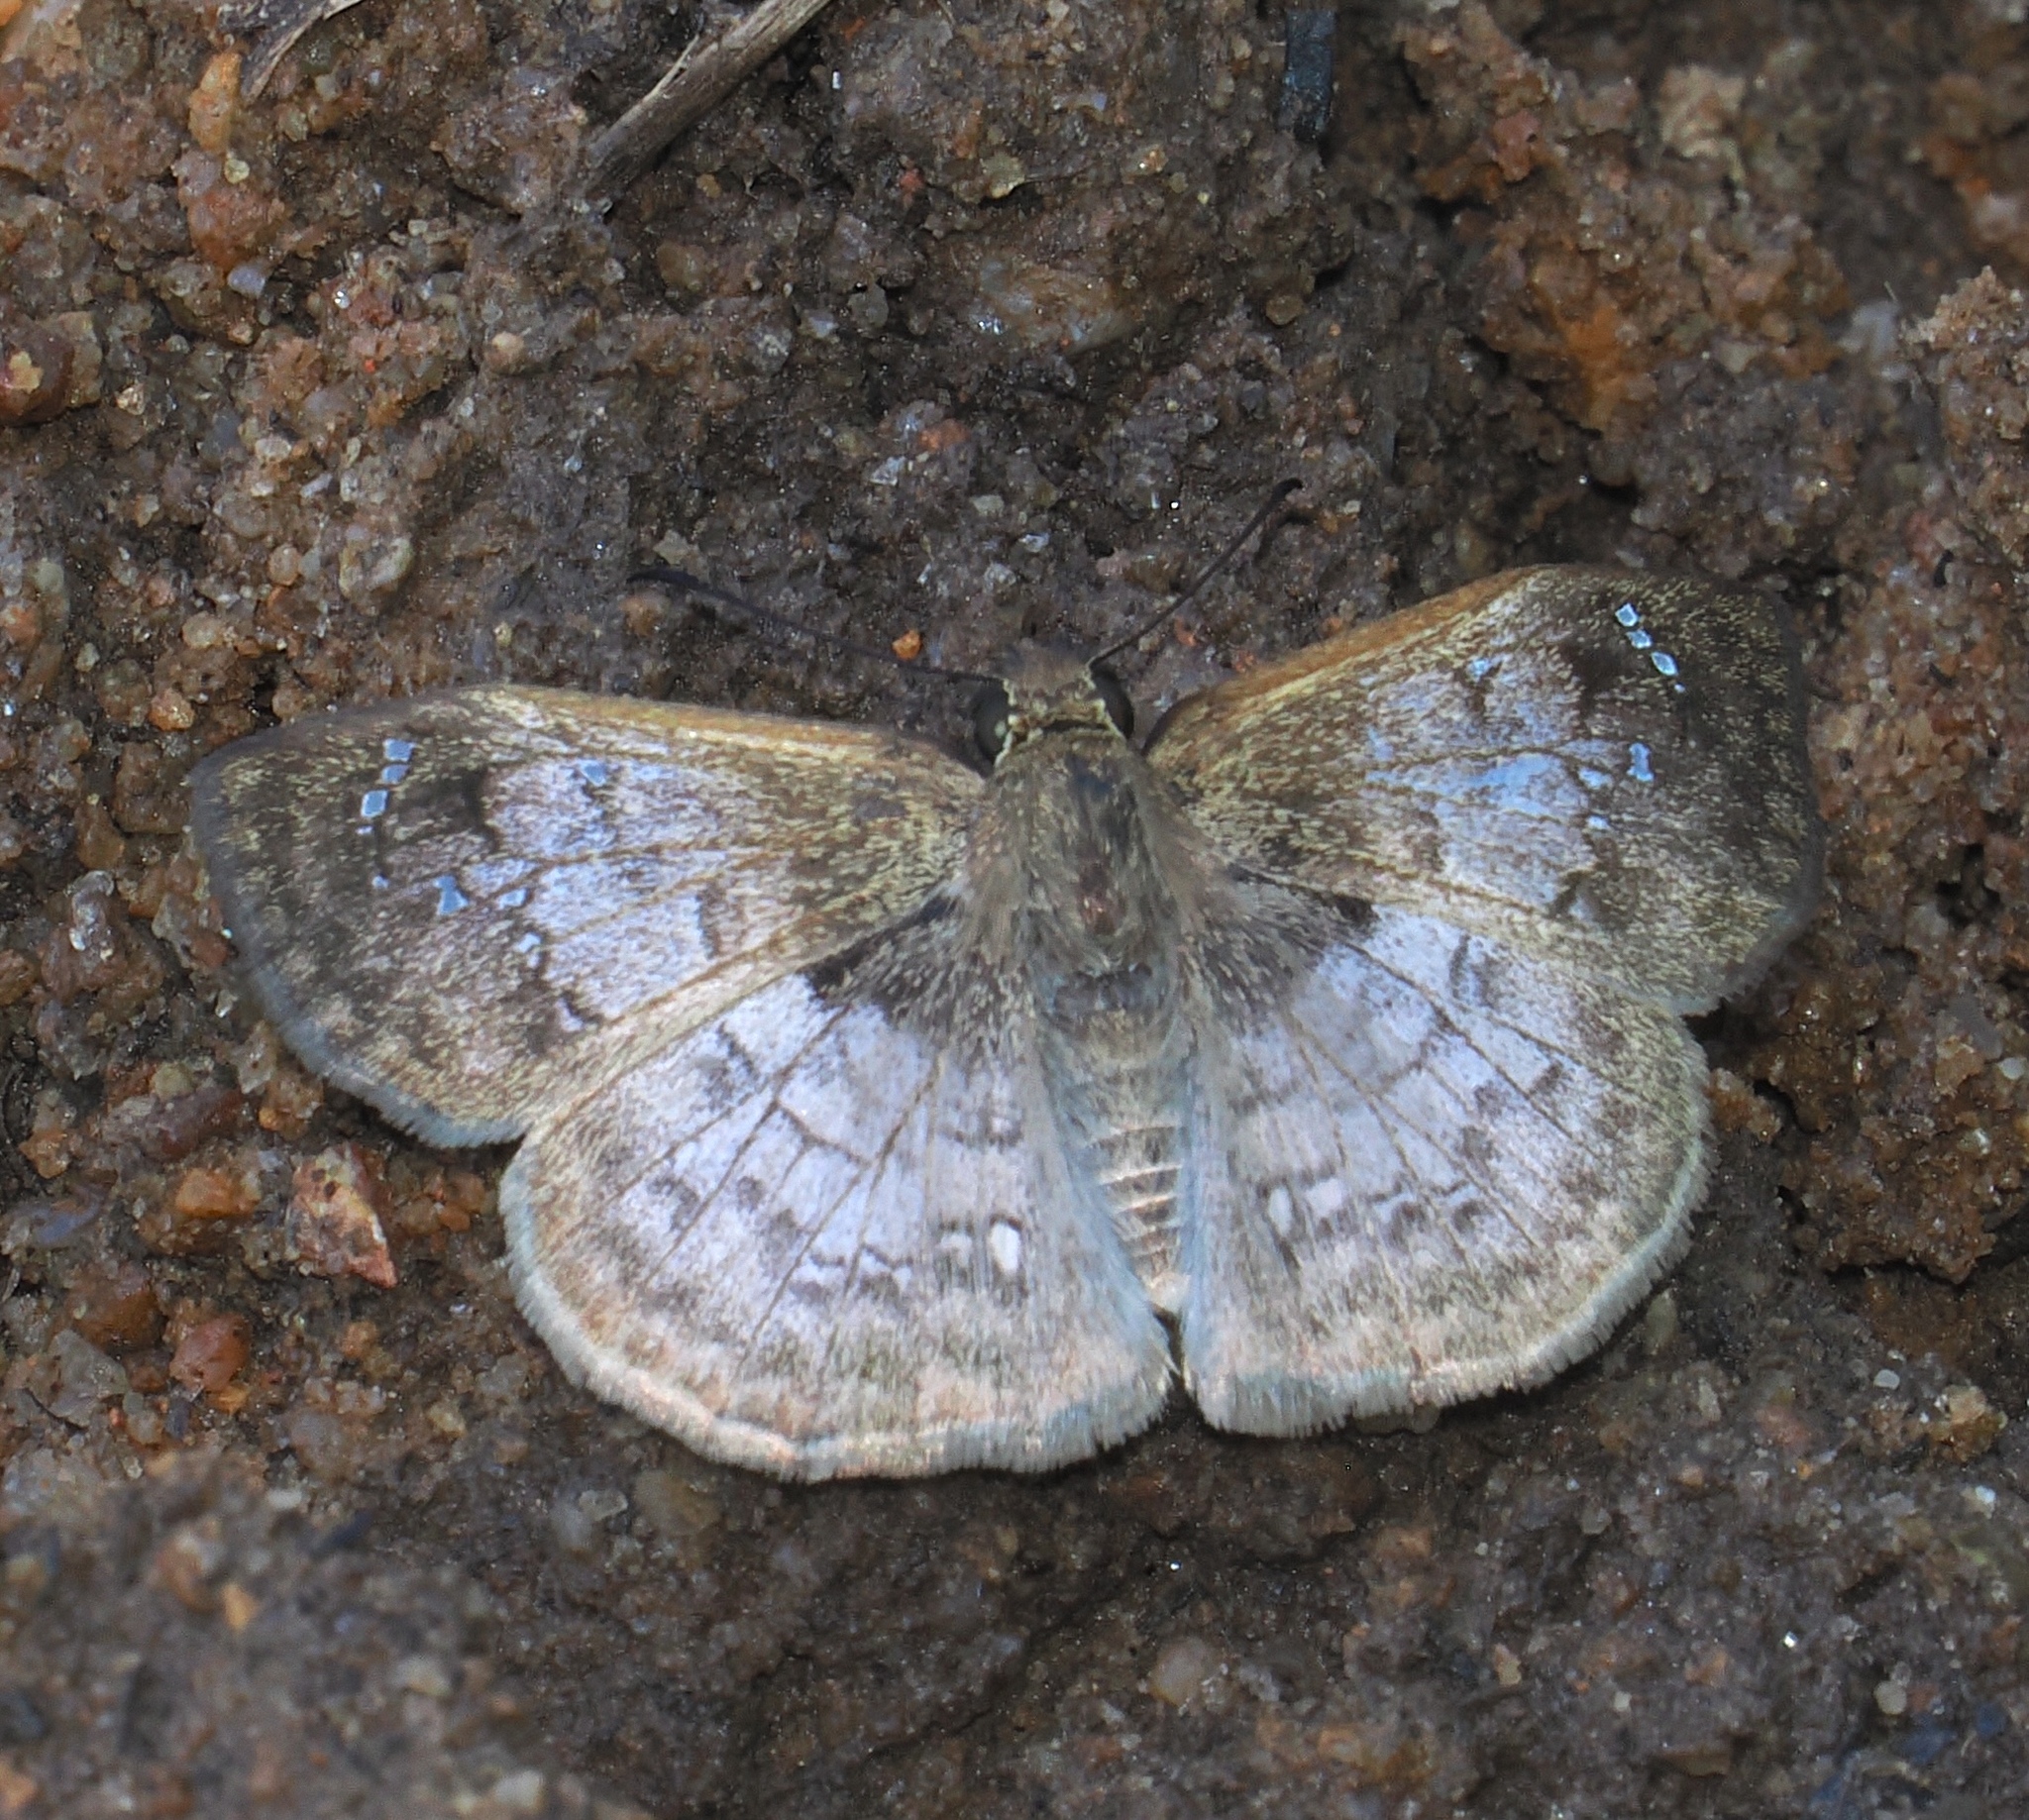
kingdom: Animalia
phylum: Arthropoda
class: Insecta
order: Lepidoptera
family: Hesperiidae
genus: Canesia
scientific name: Canesia
